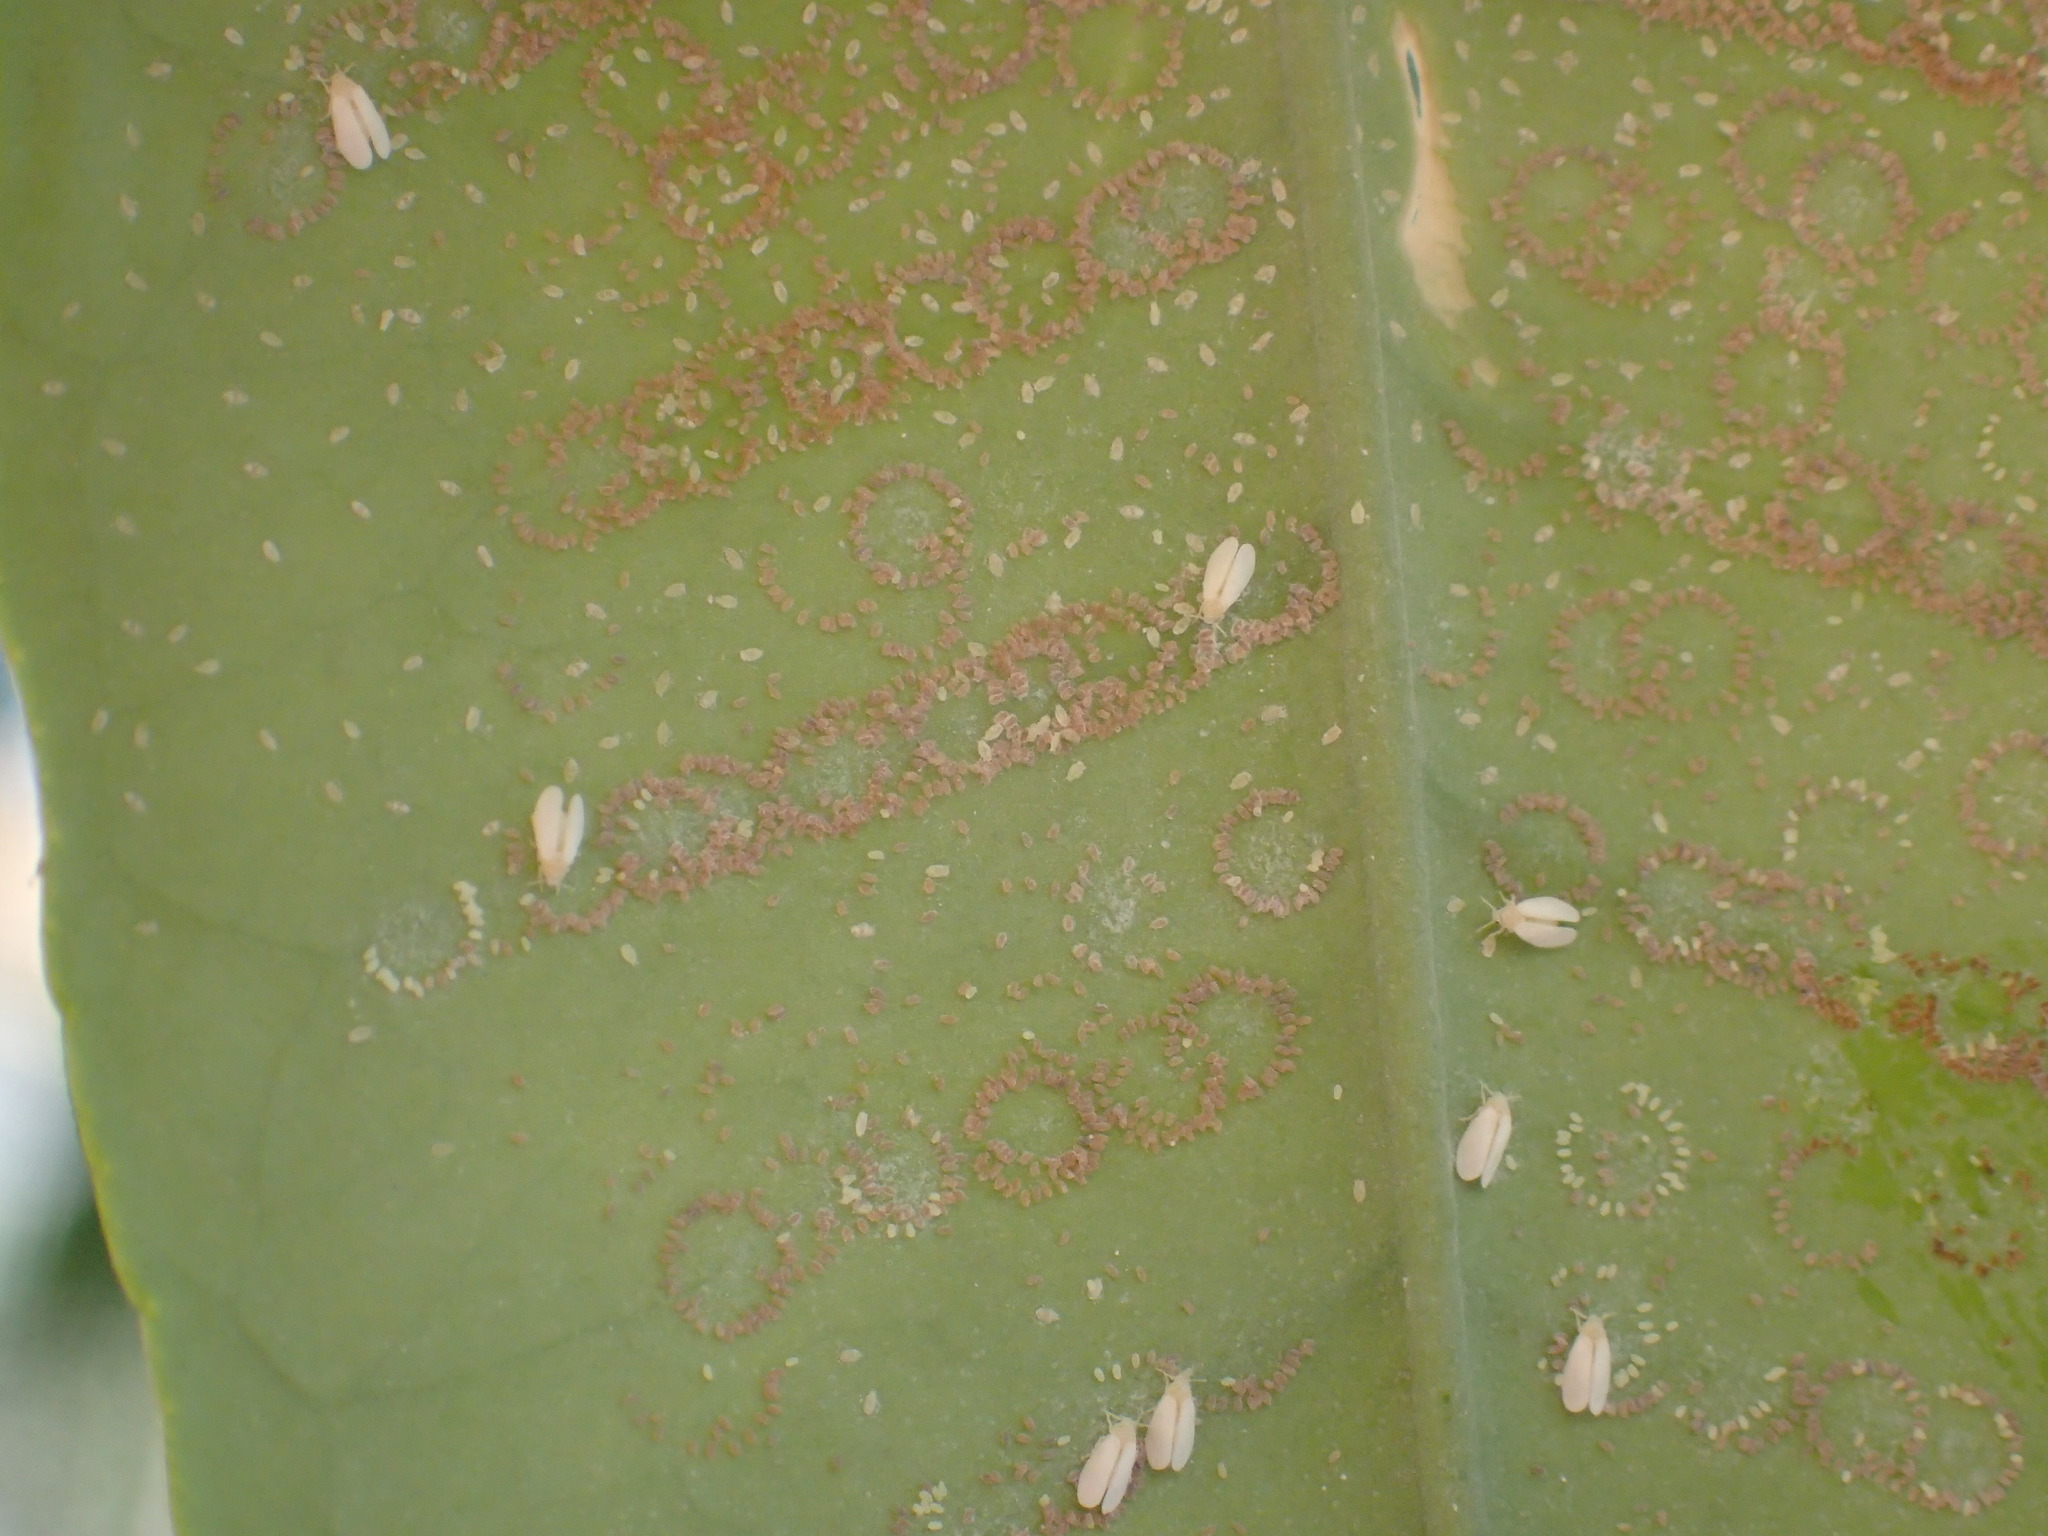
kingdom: Animalia
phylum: Arthropoda
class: Insecta
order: Hemiptera
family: Aleyrodidae
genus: Orchamoplatus
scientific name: Orchamoplatus citri
